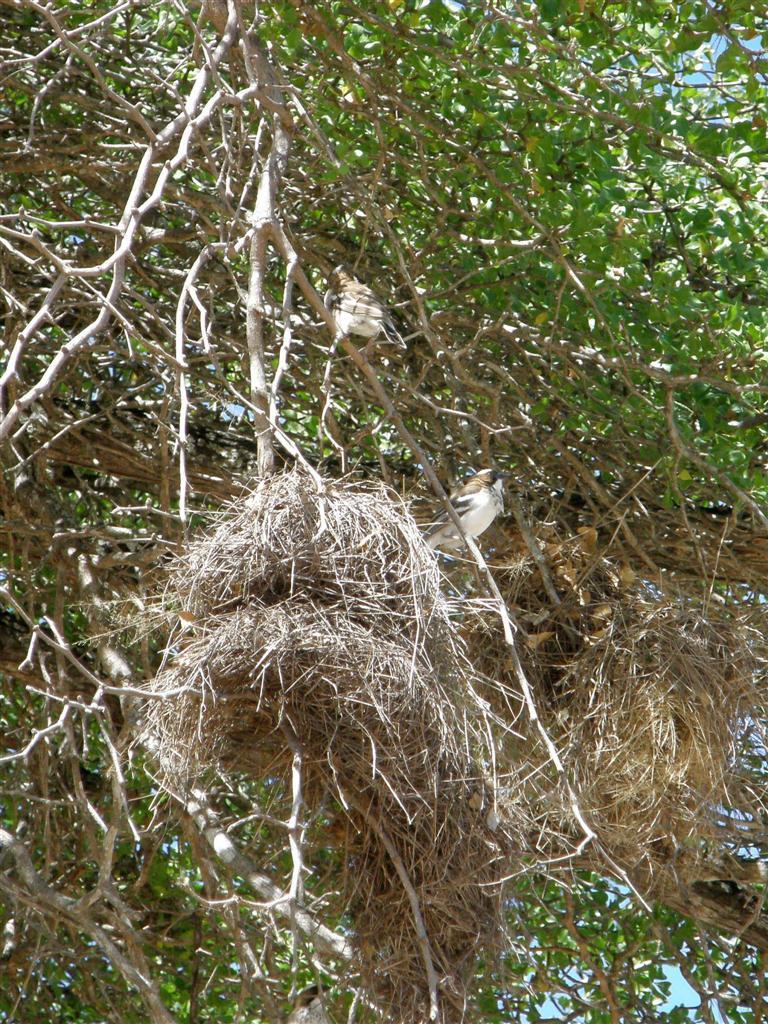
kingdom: Animalia
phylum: Chordata
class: Aves
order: Passeriformes
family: Passeridae
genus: Plocepasser
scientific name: Plocepasser mahali
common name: White-browed sparrow-weaver
